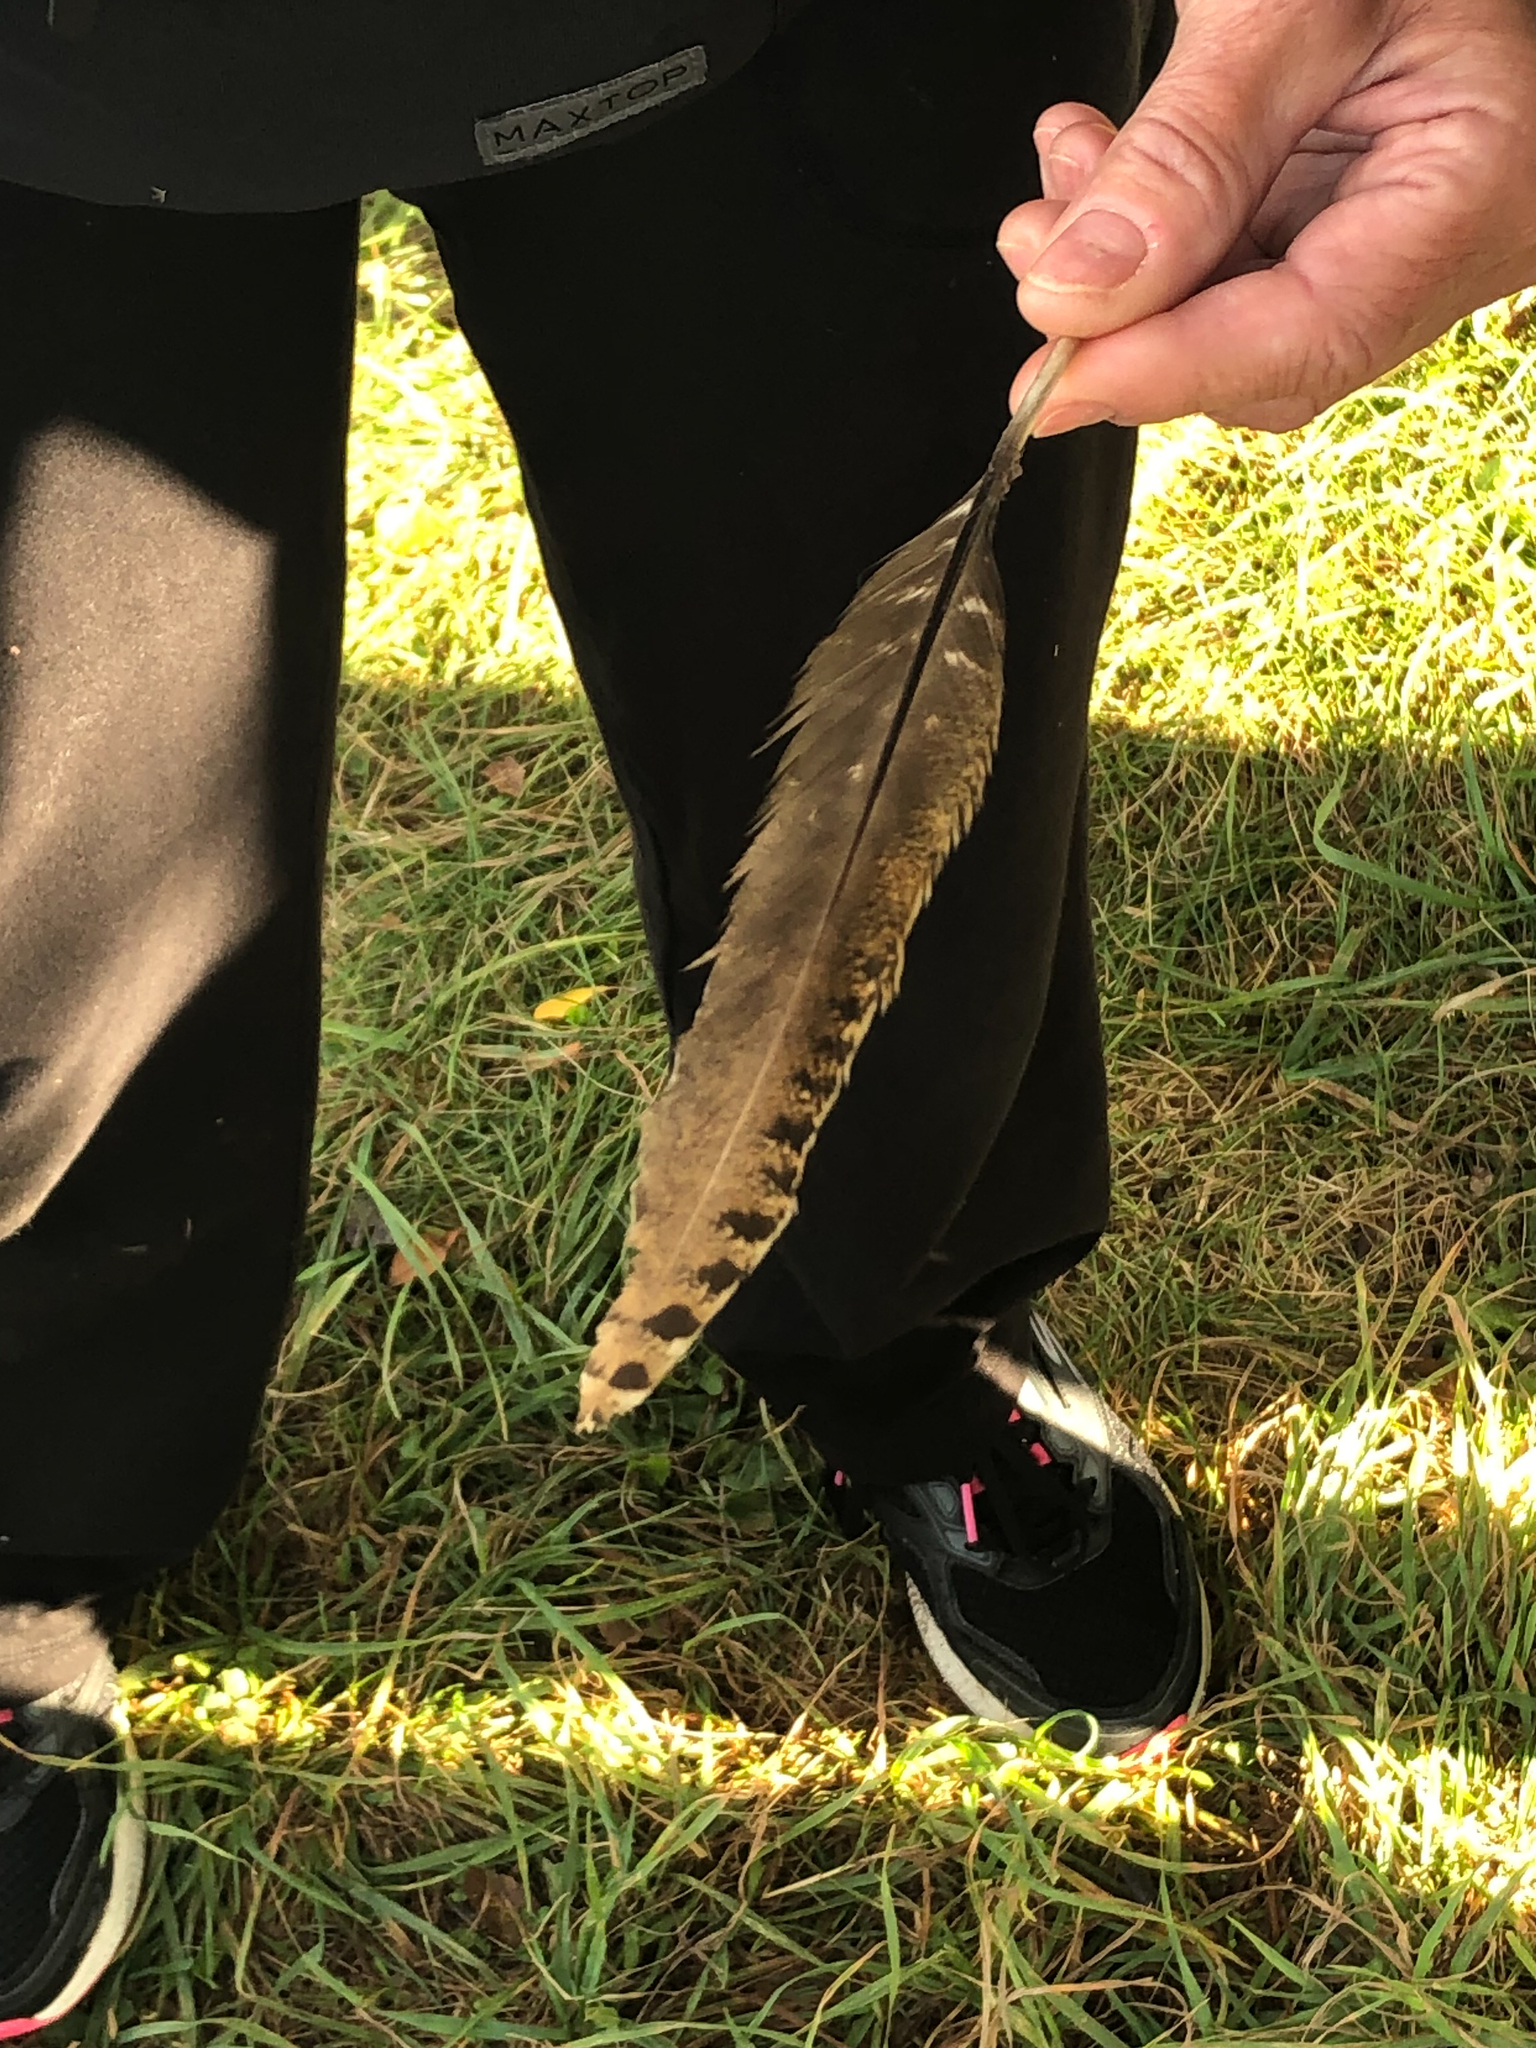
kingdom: Animalia
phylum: Chordata
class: Aves
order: Galliformes
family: Phasianidae
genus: Meleagris
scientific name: Meleagris gallopavo
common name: Wild turkey
